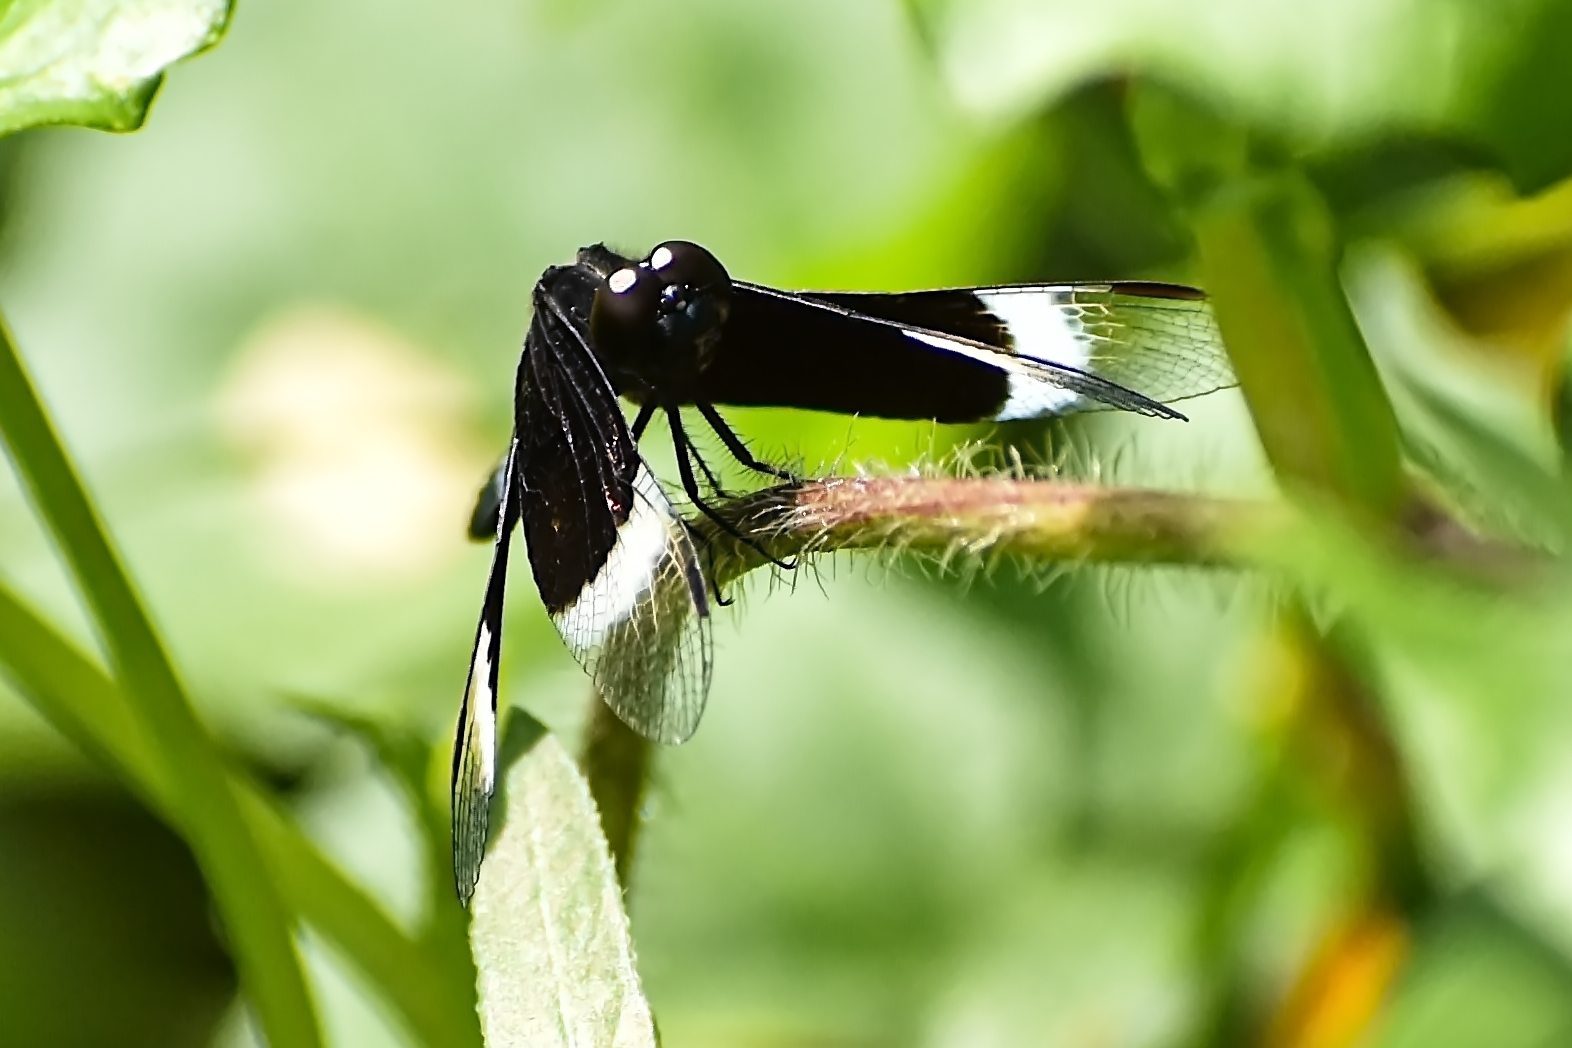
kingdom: Animalia
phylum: Arthropoda
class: Insecta
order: Odonata
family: Libellulidae
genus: Neurothemis
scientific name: Neurothemis tullia
